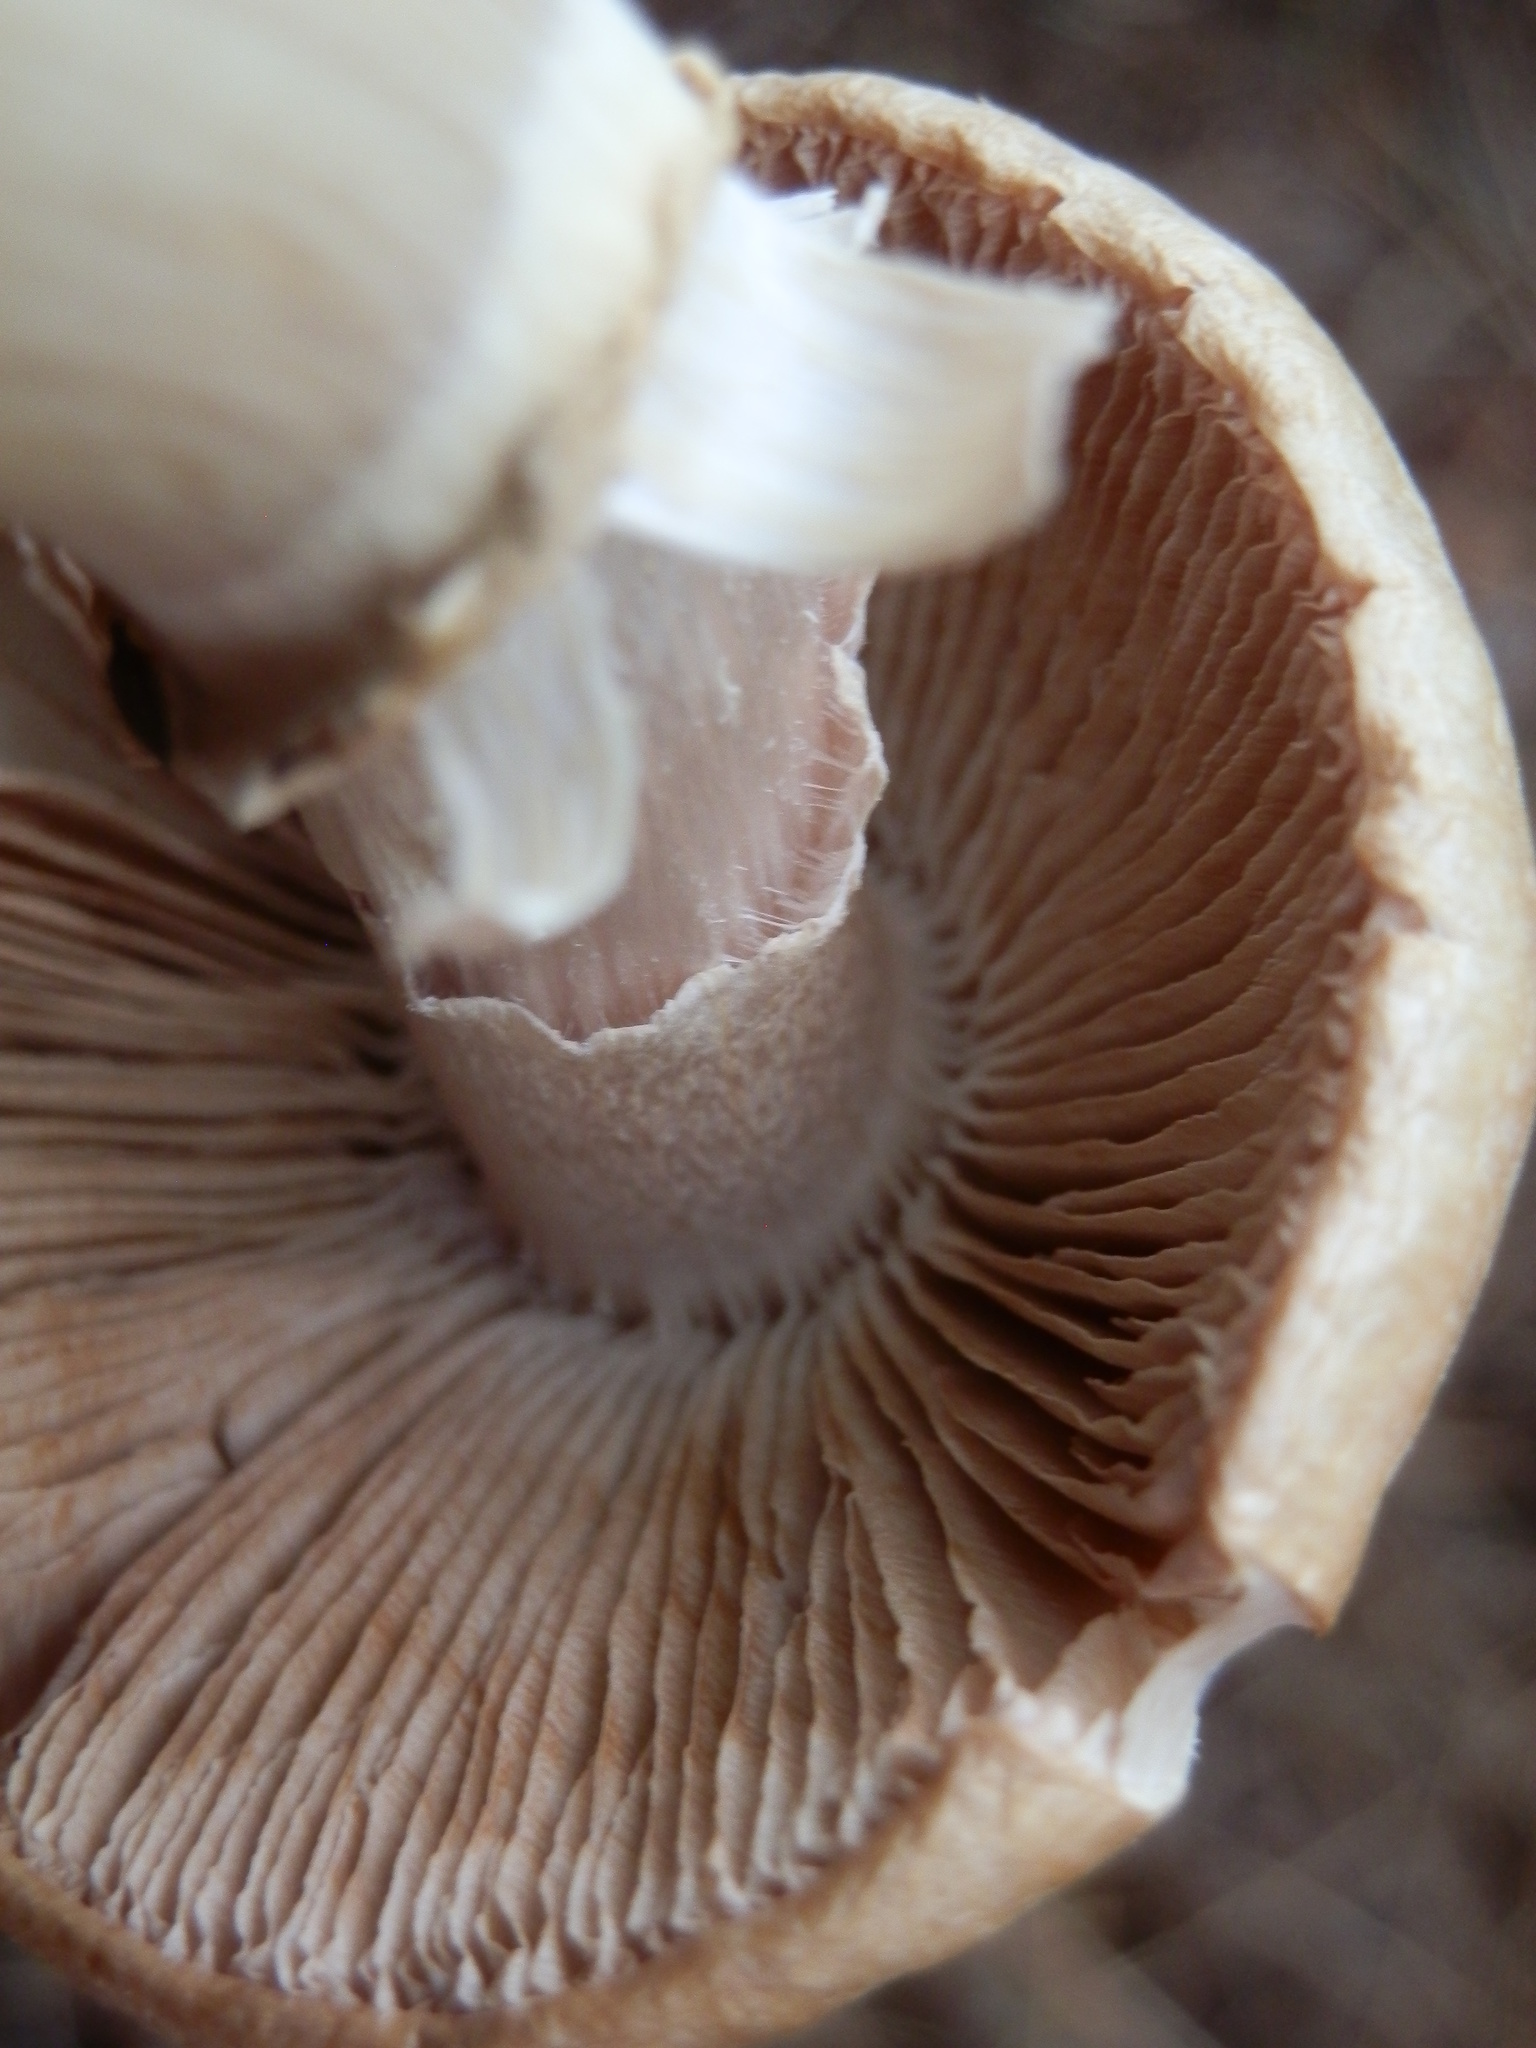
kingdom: Fungi
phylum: Basidiomycota
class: Agaricomycetes
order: Agaricales
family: Cortinariaceae
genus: Cortinarius
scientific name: Cortinarius caperatus
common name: The gypsy
